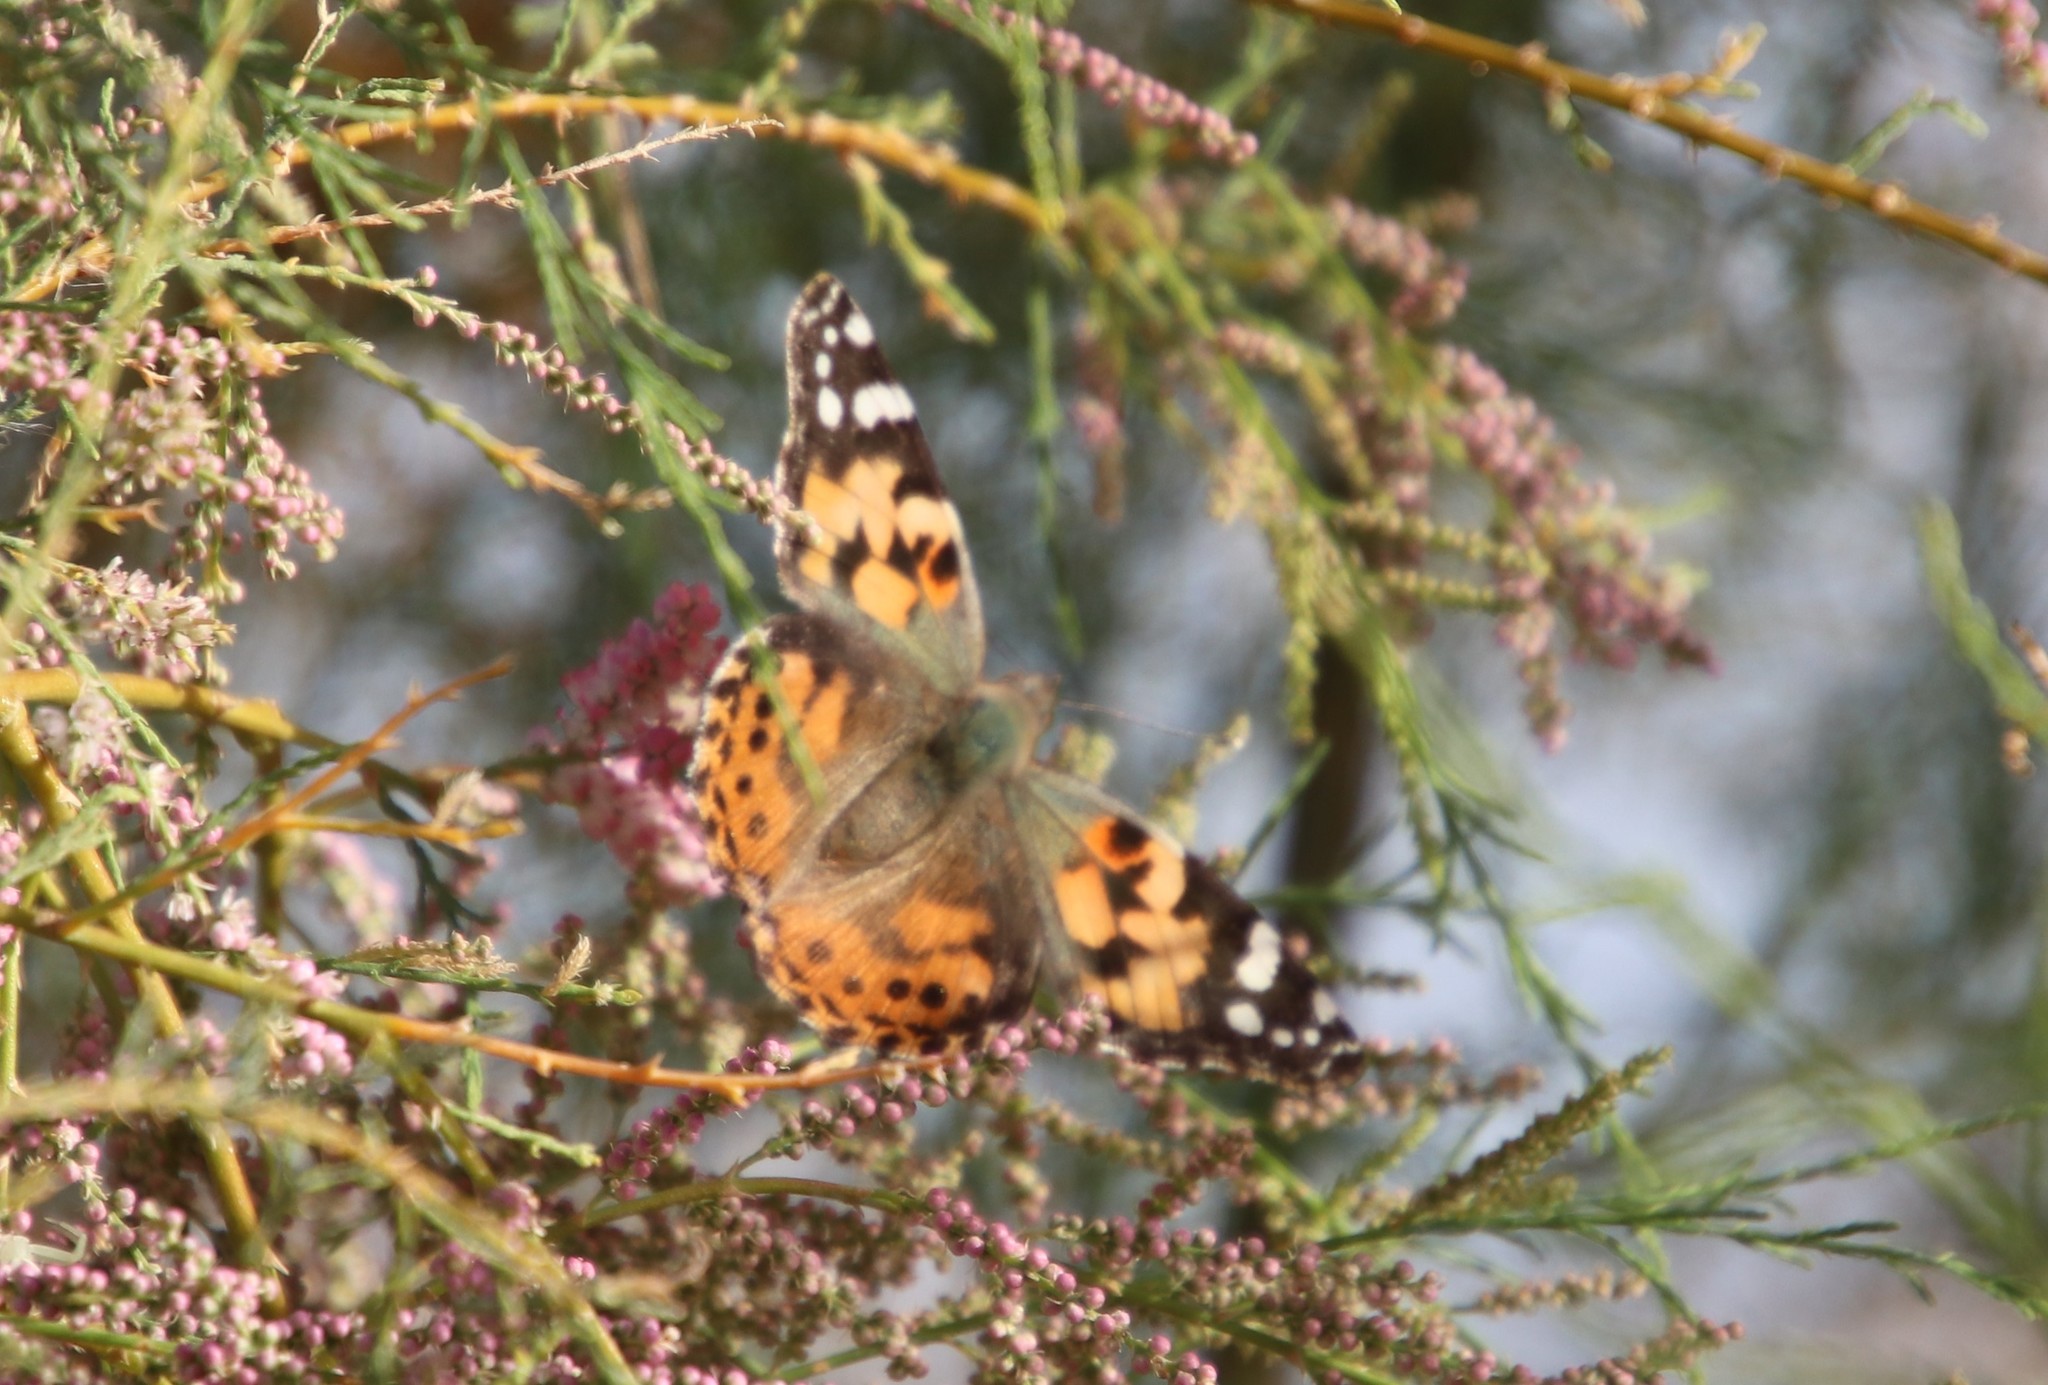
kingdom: Animalia
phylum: Arthropoda
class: Insecta
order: Lepidoptera
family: Nymphalidae
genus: Vanessa
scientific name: Vanessa cardui
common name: Painted lady
